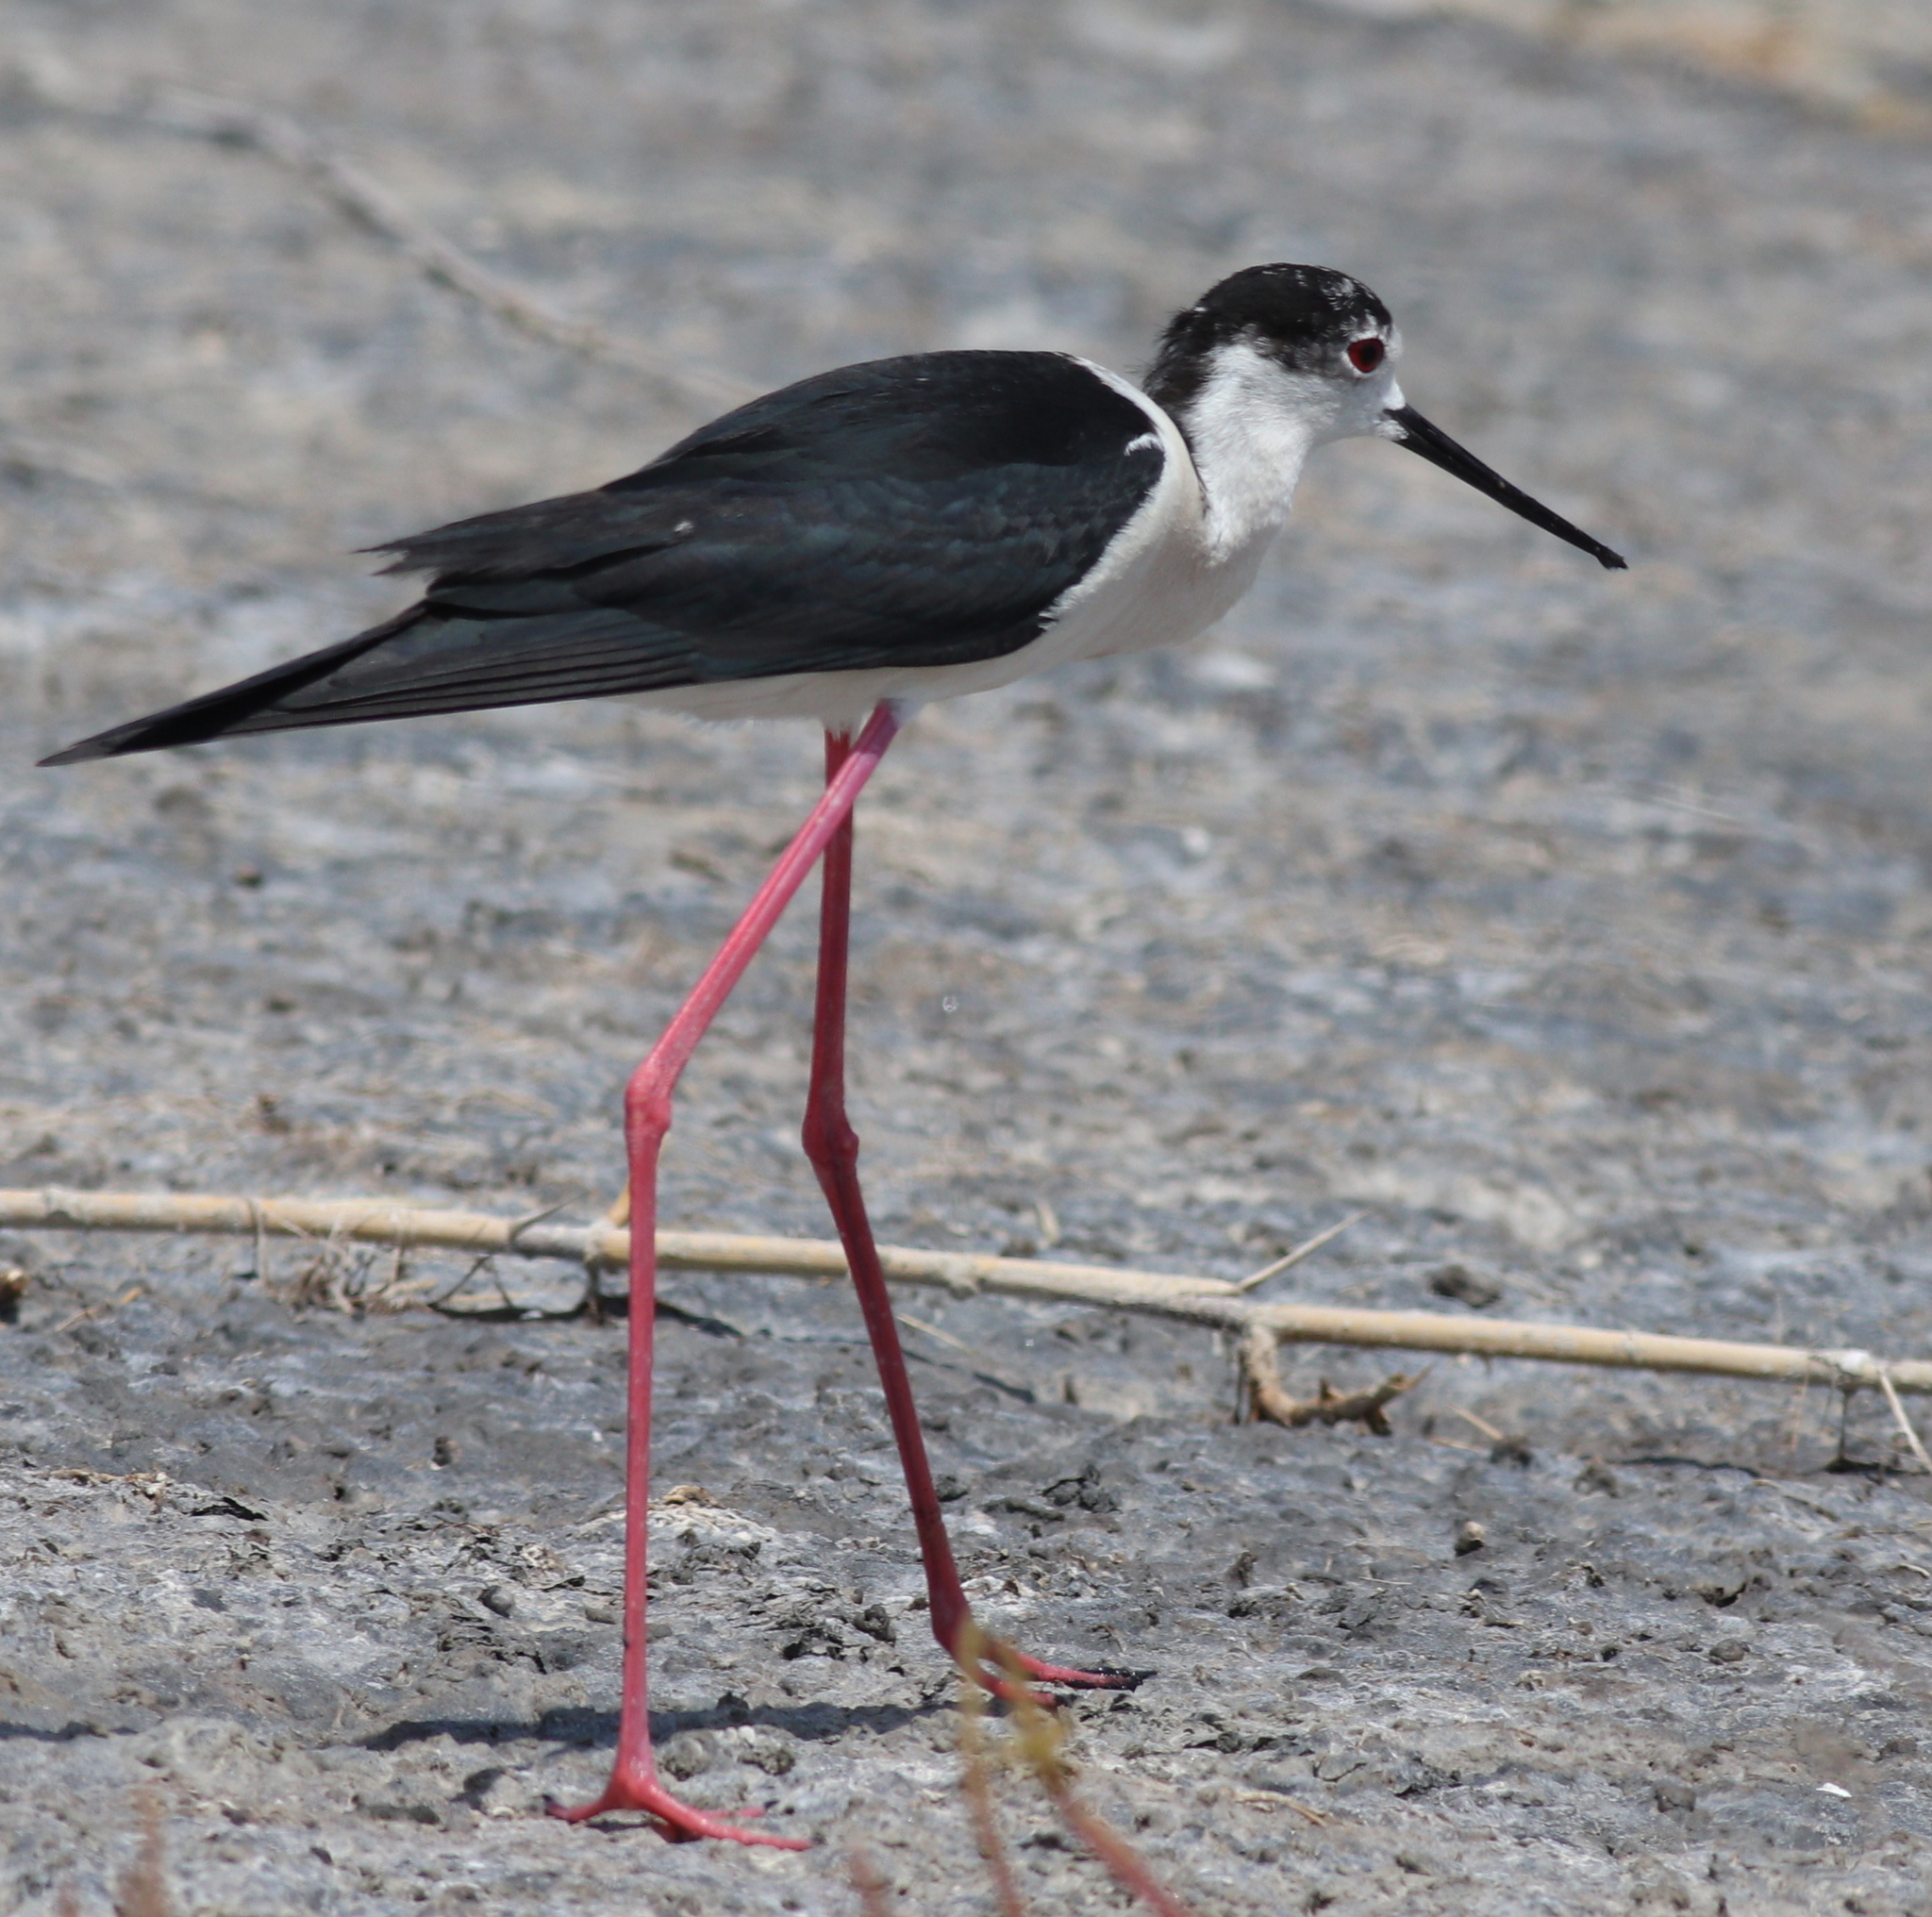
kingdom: Animalia
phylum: Chordata
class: Aves
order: Charadriiformes
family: Recurvirostridae
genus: Himantopus
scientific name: Himantopus himantopus
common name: Black-winged stilt
